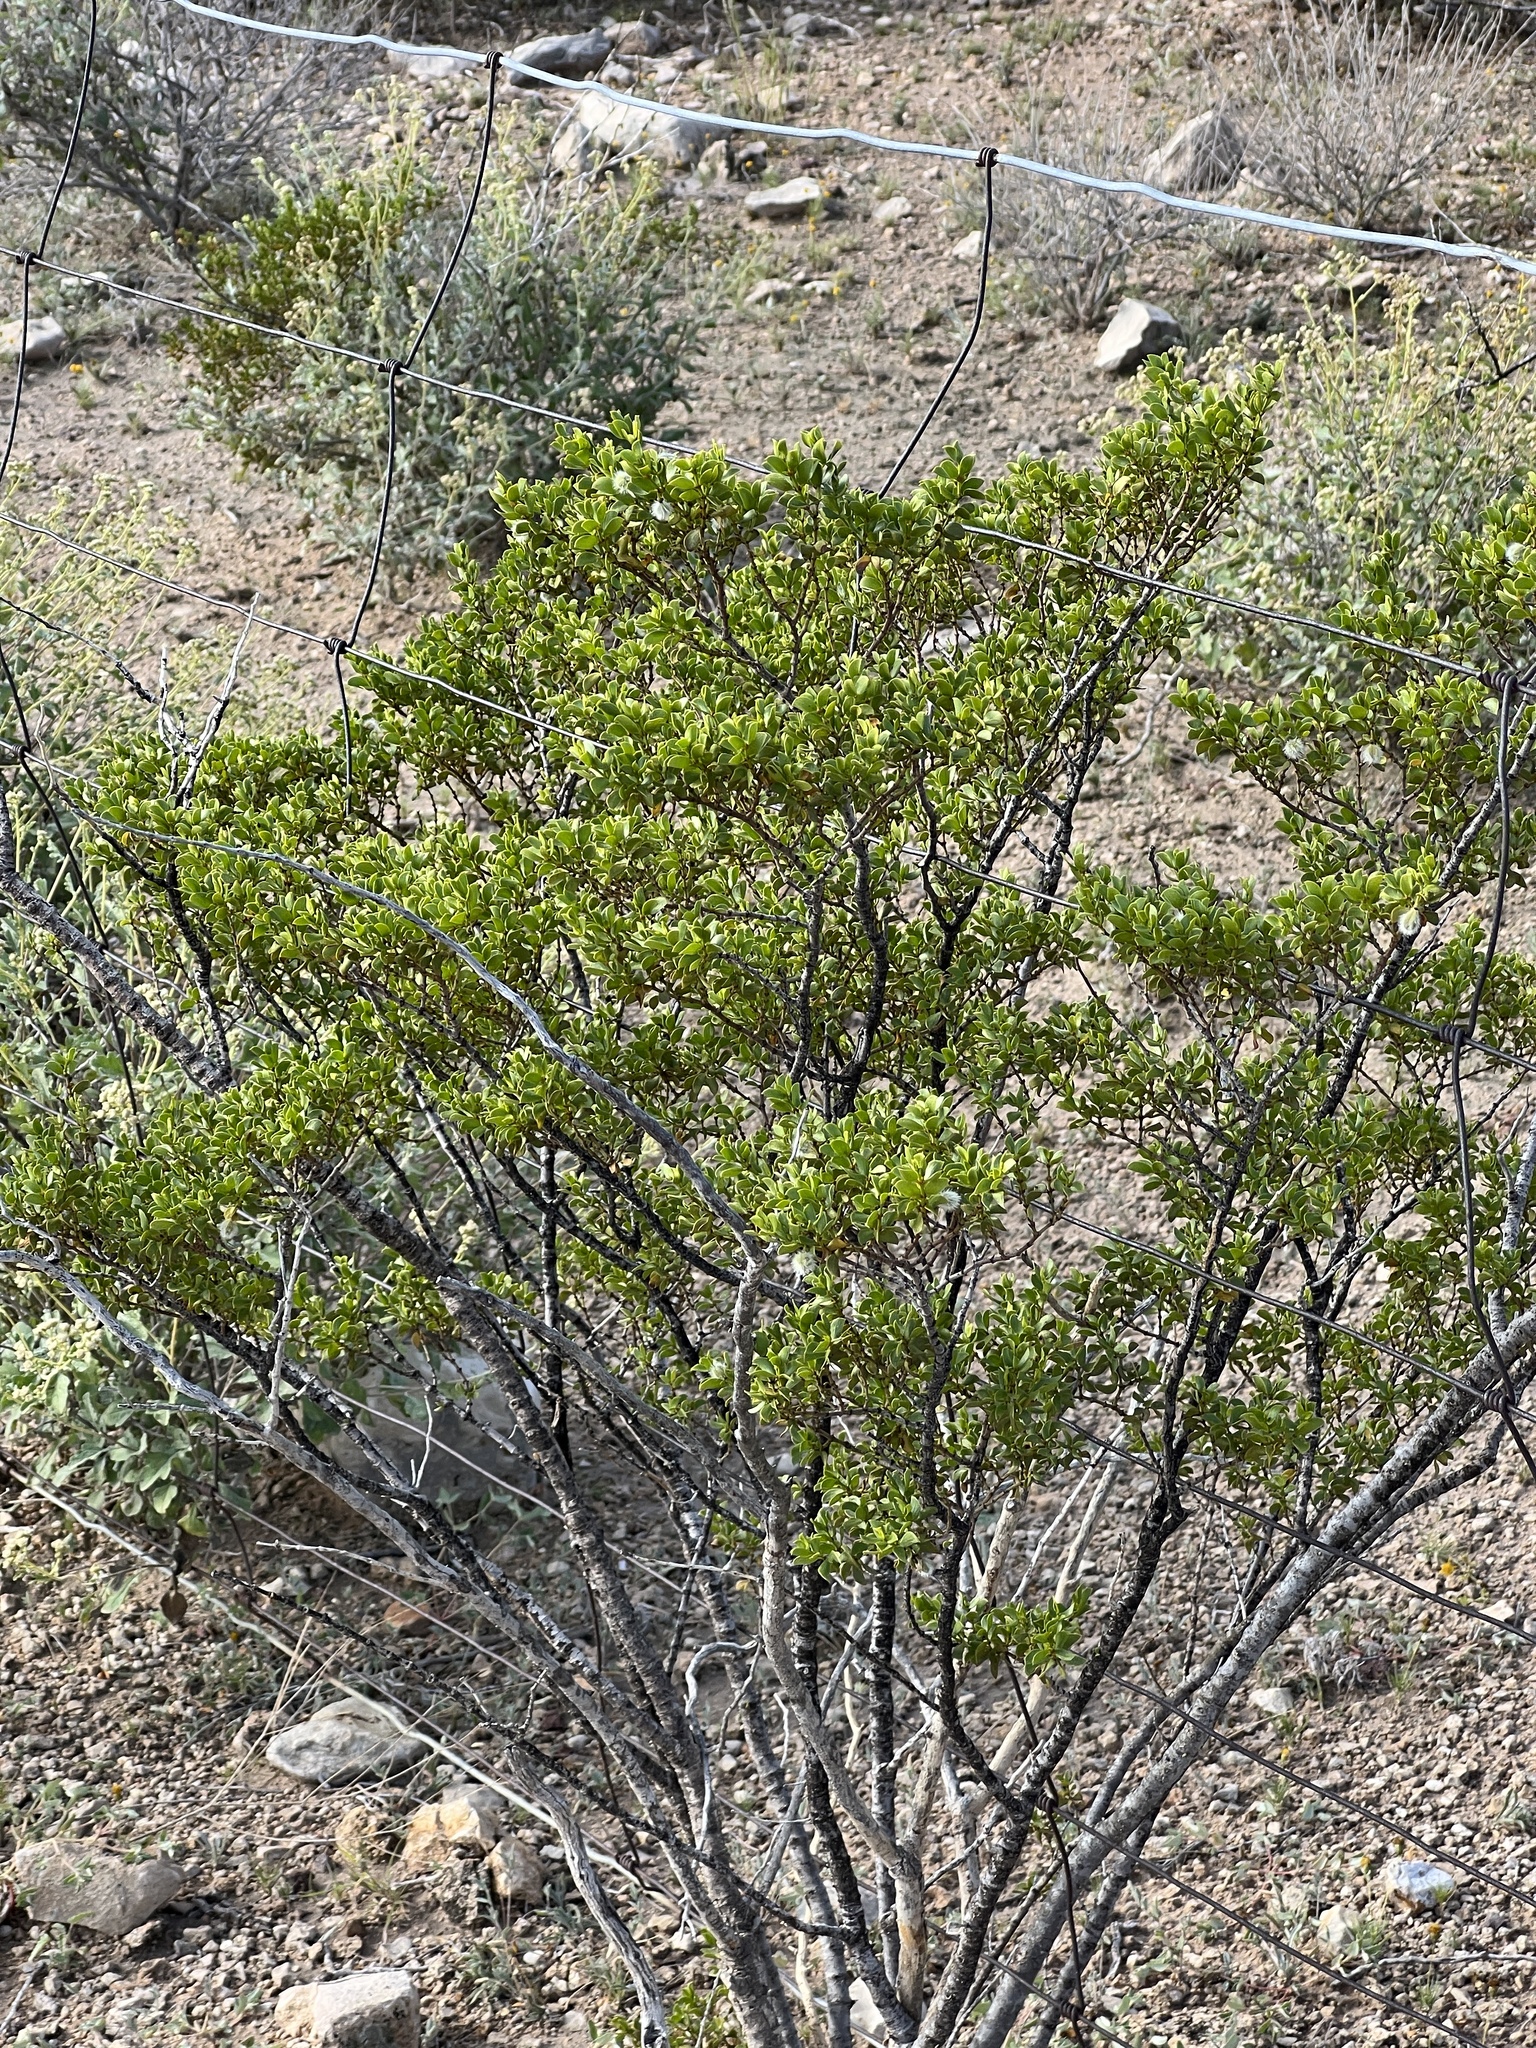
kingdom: Plantae
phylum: Tracheophyta
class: Magnoliopsida
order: Zygophyllales
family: Zygophyllaceae
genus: Larrea
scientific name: Larrea tridentata
